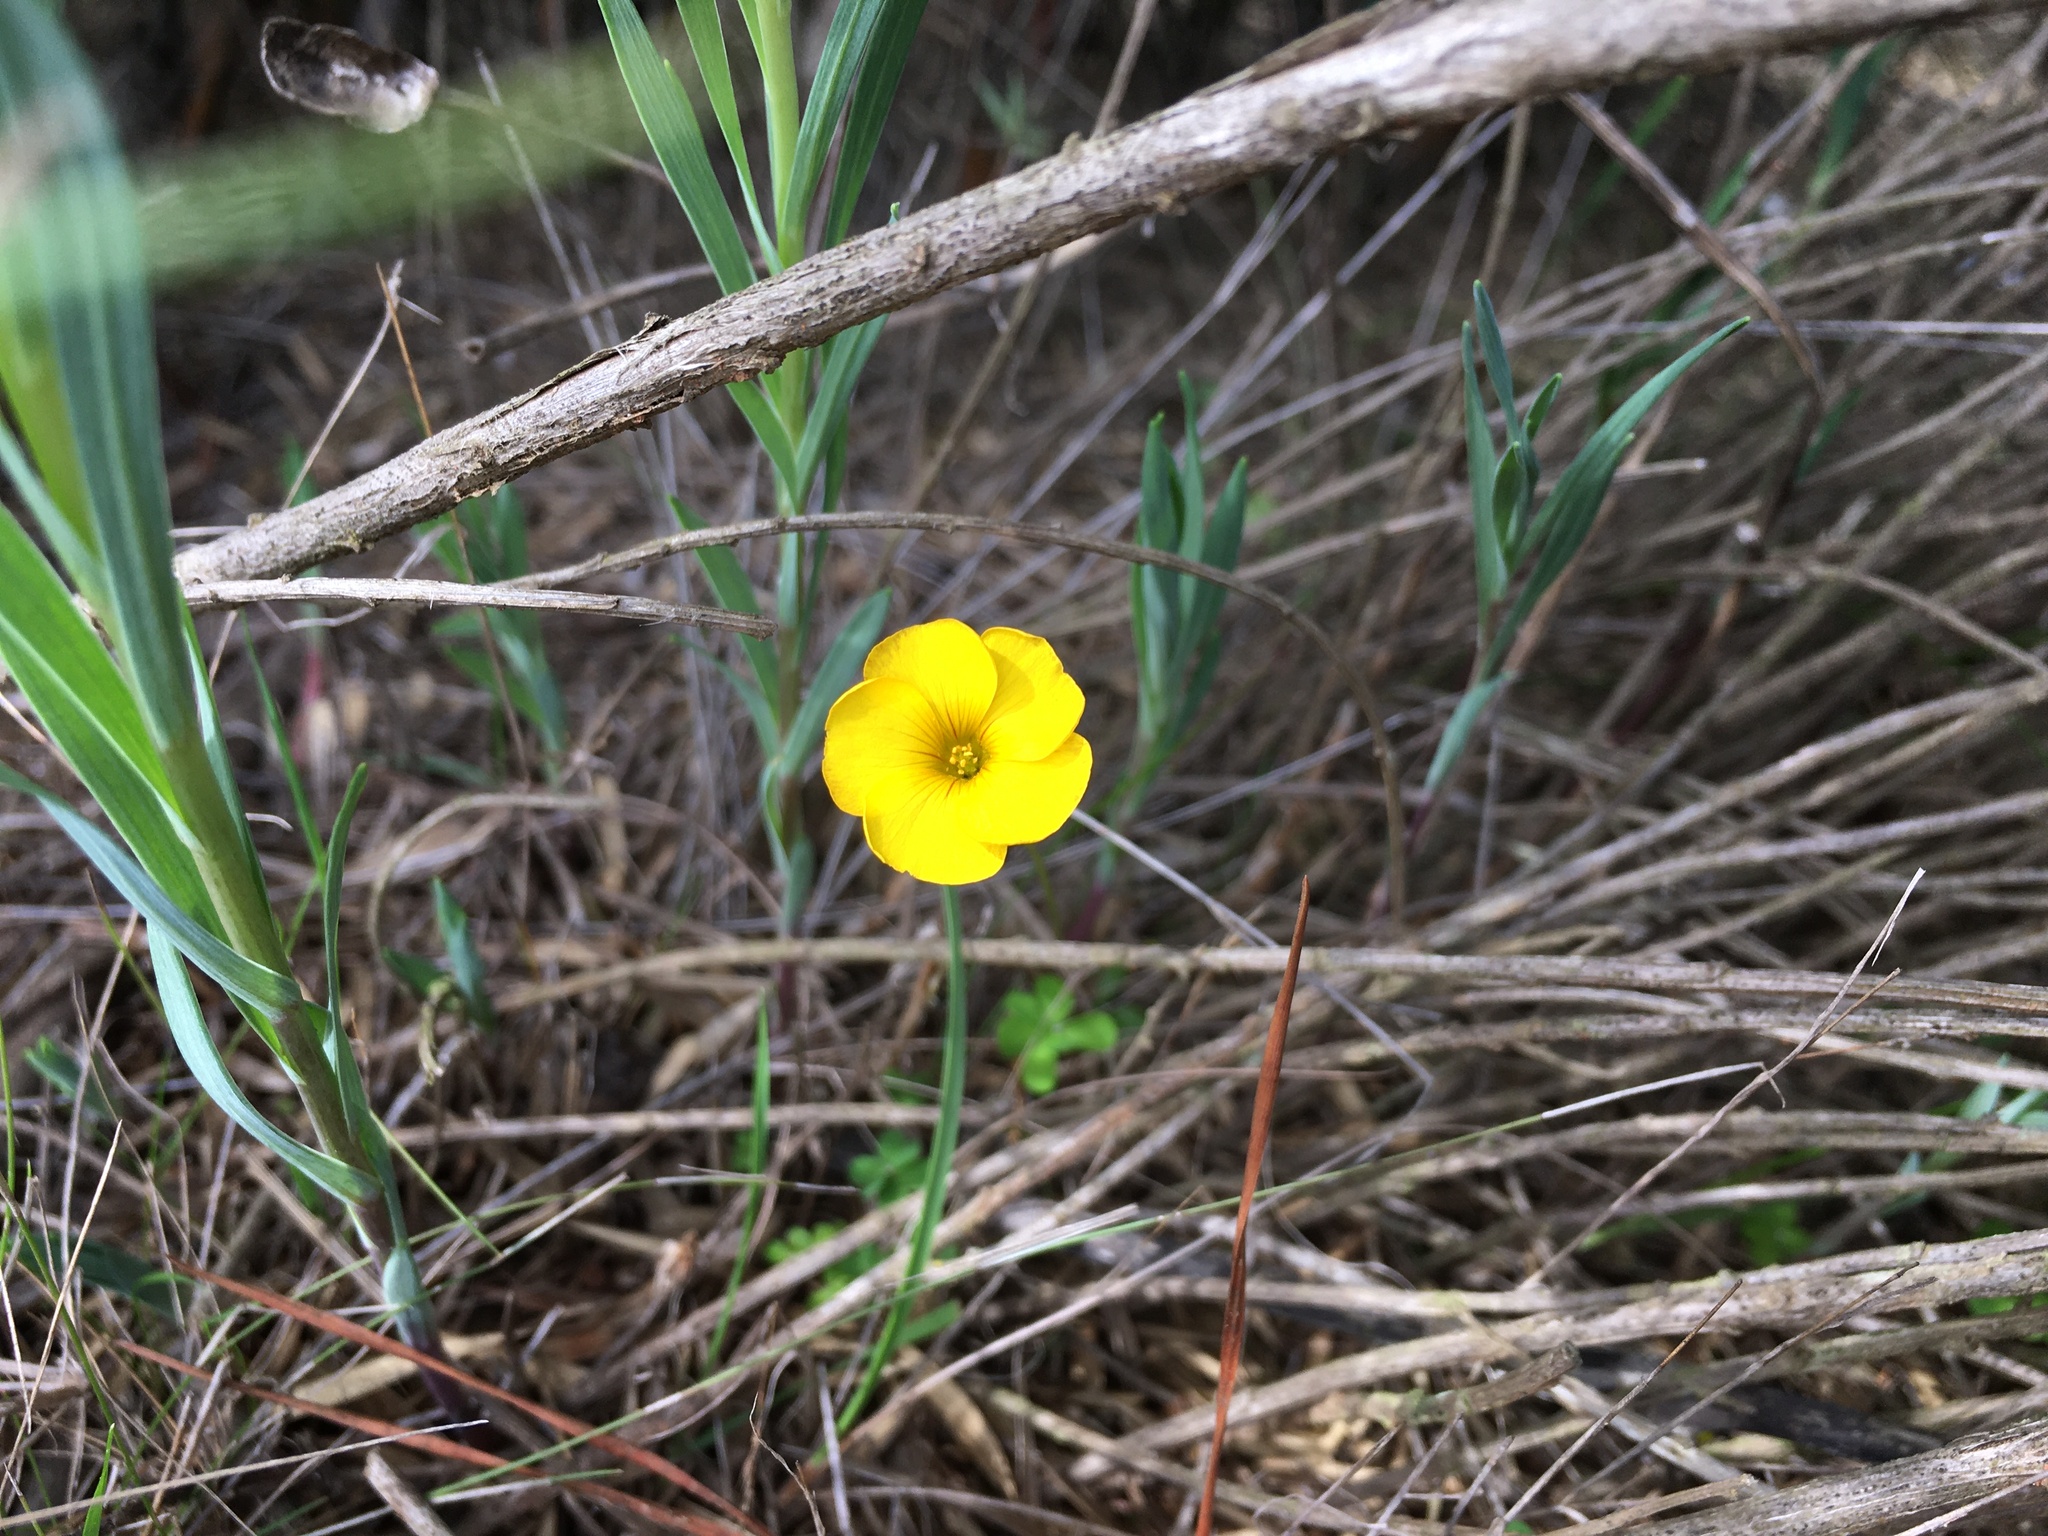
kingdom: Plantae
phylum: Tracheophyta
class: Magnoliopsida
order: Oxalidales
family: Oxalidaceae
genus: Oxalis
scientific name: Oxalis perdicaria
